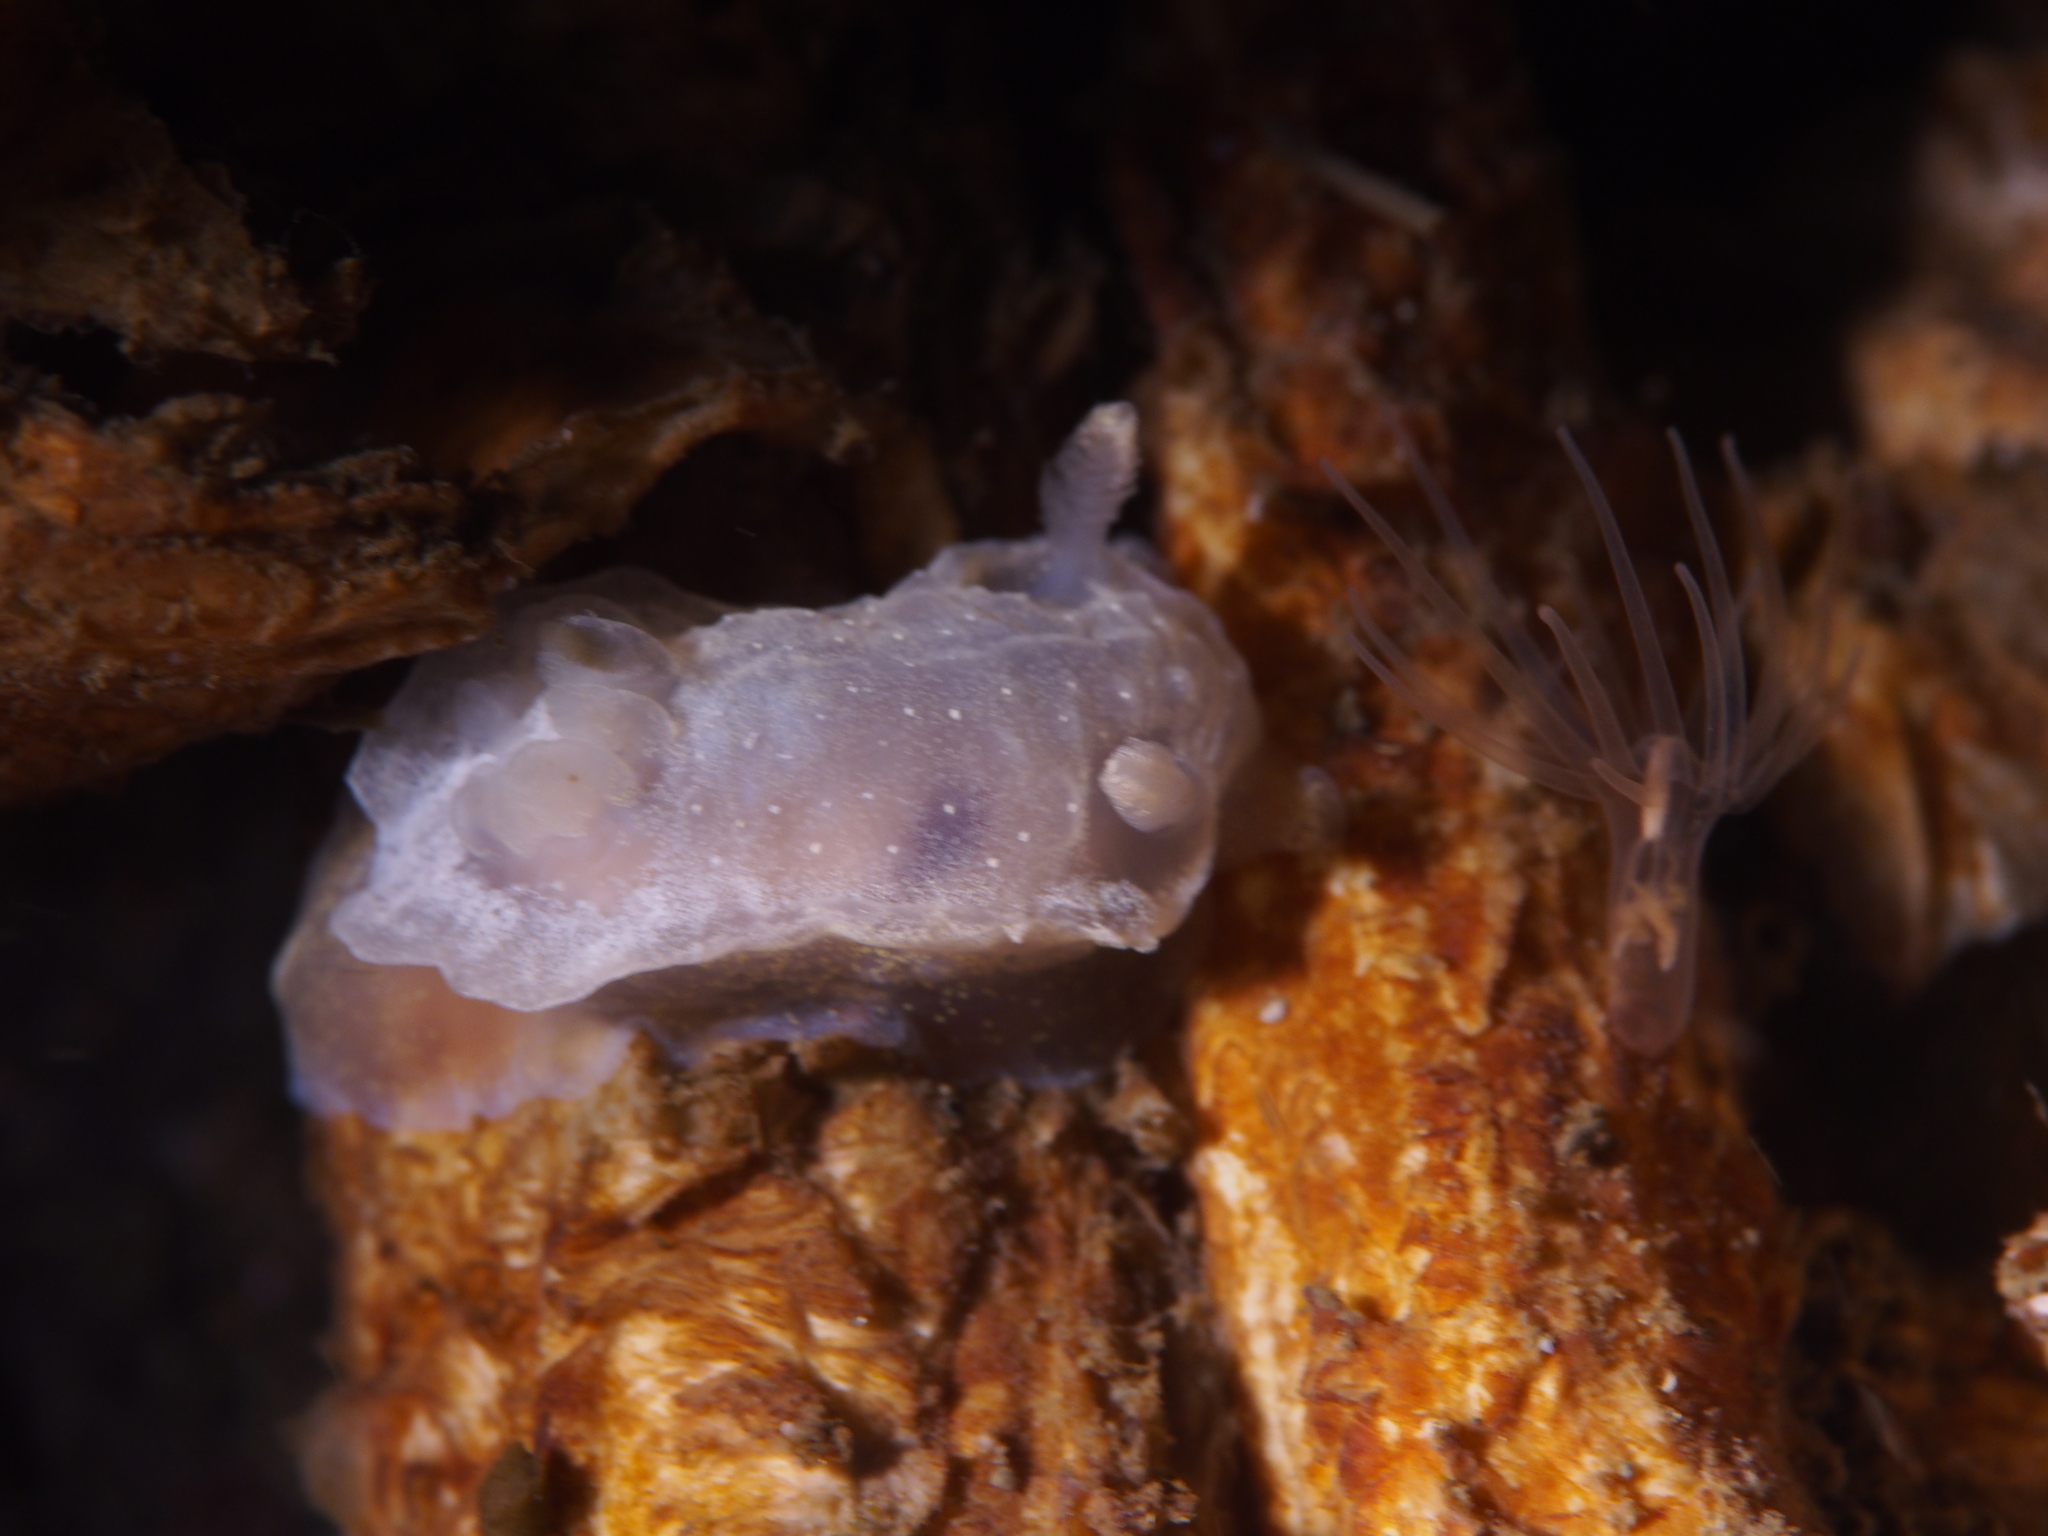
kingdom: Animalia
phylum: Mollusca
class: Gastropoda
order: Nudibranchia
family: Goniodorididae
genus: Okenia
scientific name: Okenia
